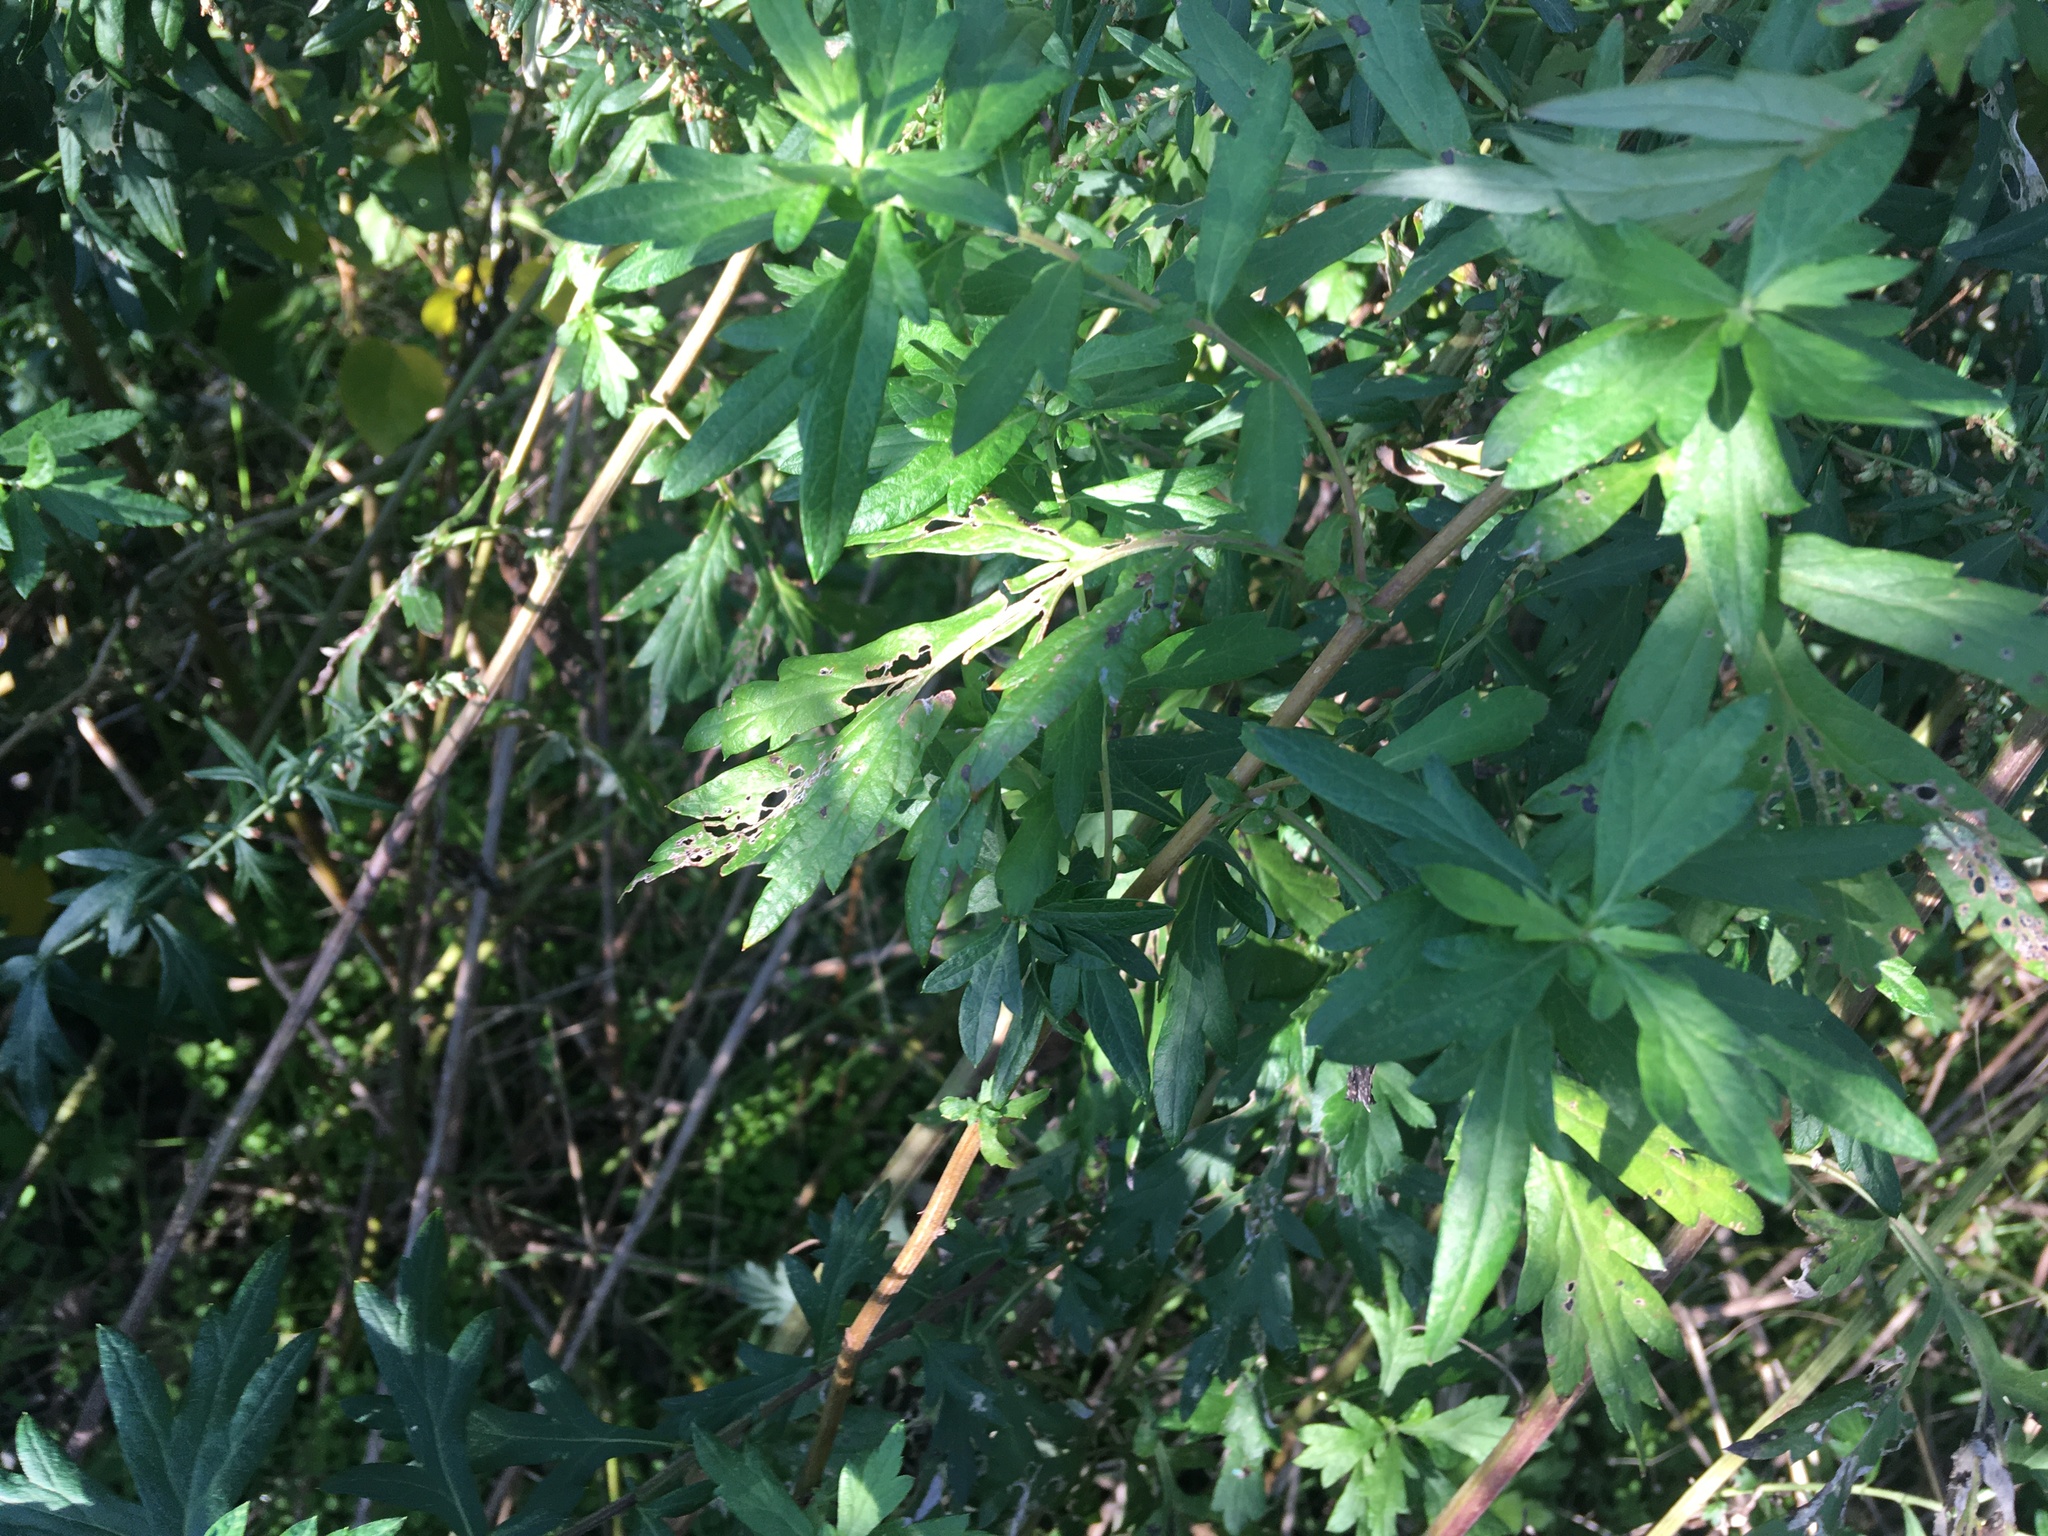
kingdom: Plantae
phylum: Tracheophyta
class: Magnoliopsida
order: Asterales
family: Asteraceae
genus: Artemisia
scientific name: Artemisia vulgaris
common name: Mugwort
